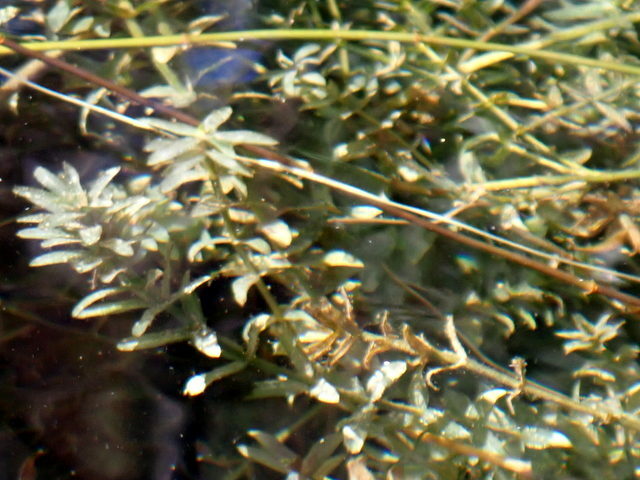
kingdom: Plantae
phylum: Tracheophyta
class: Liliopsida
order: Alismatales
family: Hydrocharitaceae
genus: Hydrilla
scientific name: Hydrilla verticillata
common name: Florida-elodea
